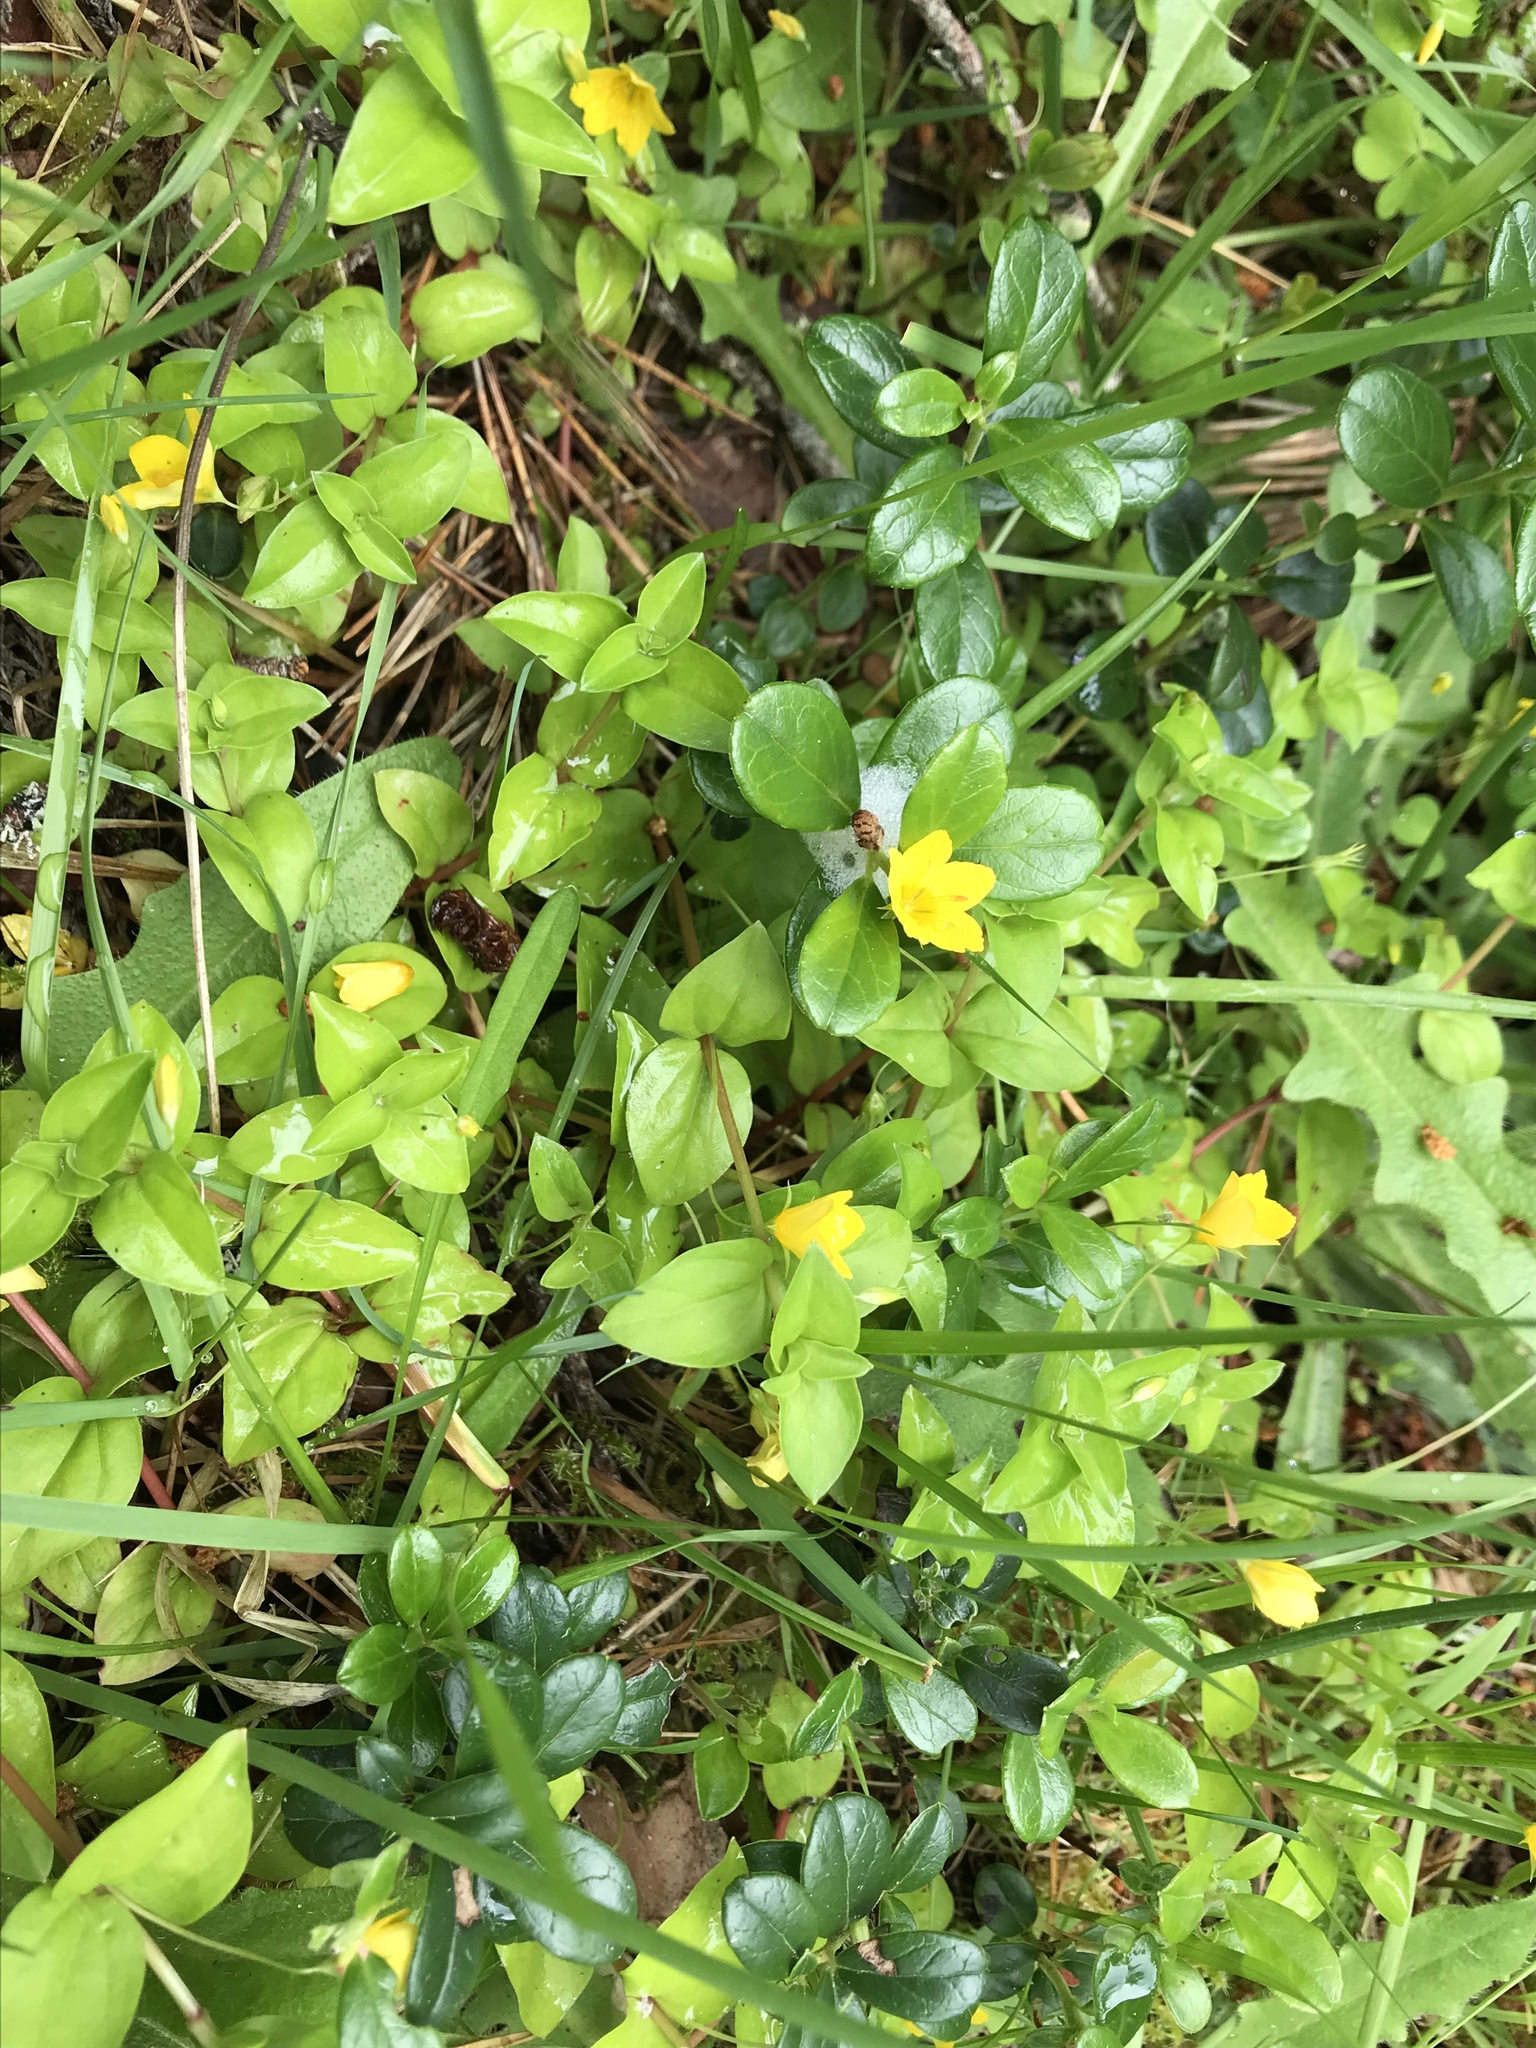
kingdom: Plantae
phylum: Tracheophyta
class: Magnoliopsida
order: Ericales
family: Primulaceae
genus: Lysimachia
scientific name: Lysimachia nemorum
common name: Yellow pimpernel
